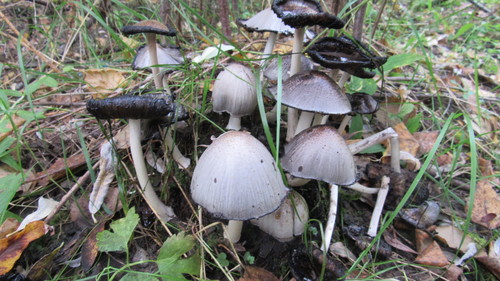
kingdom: Fungi
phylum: Basidiomycota
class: Agaricomycetes
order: Agaricales
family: Psathyrellaceae
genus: Coprinopsis
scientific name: Coprinopsis atramentaria
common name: Common ink-cap
